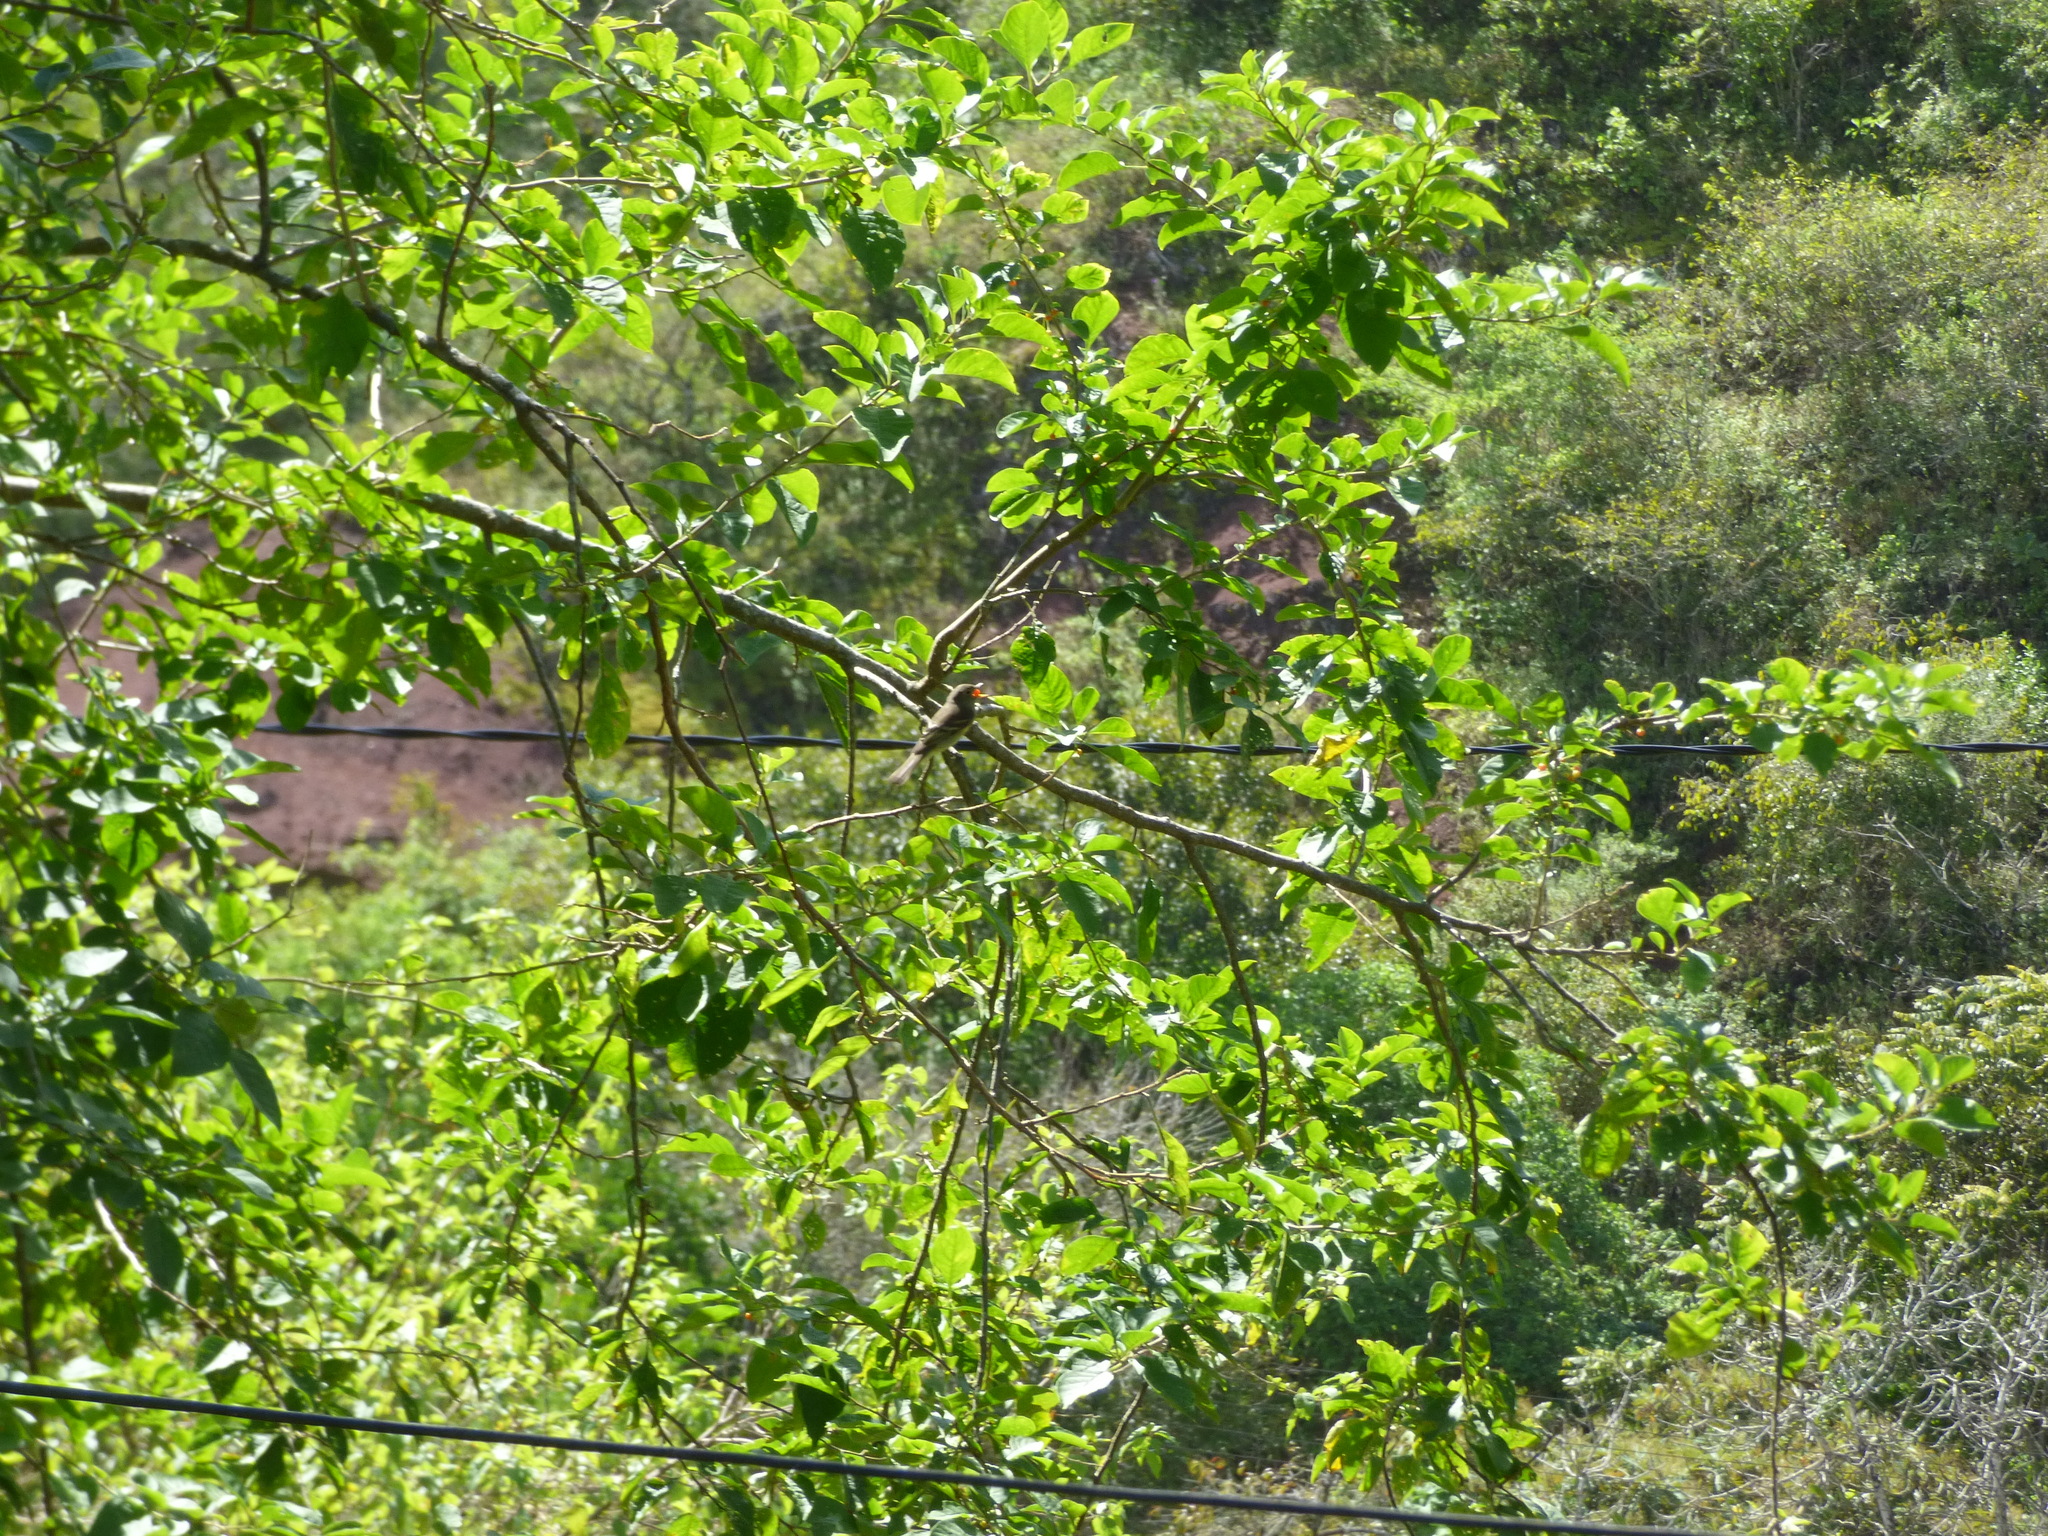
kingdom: Plantae
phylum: Tracheophyta
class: Magnoliopsida
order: Solanales
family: Solanaceae
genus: Vassobia
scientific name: Vassobia breviflora
